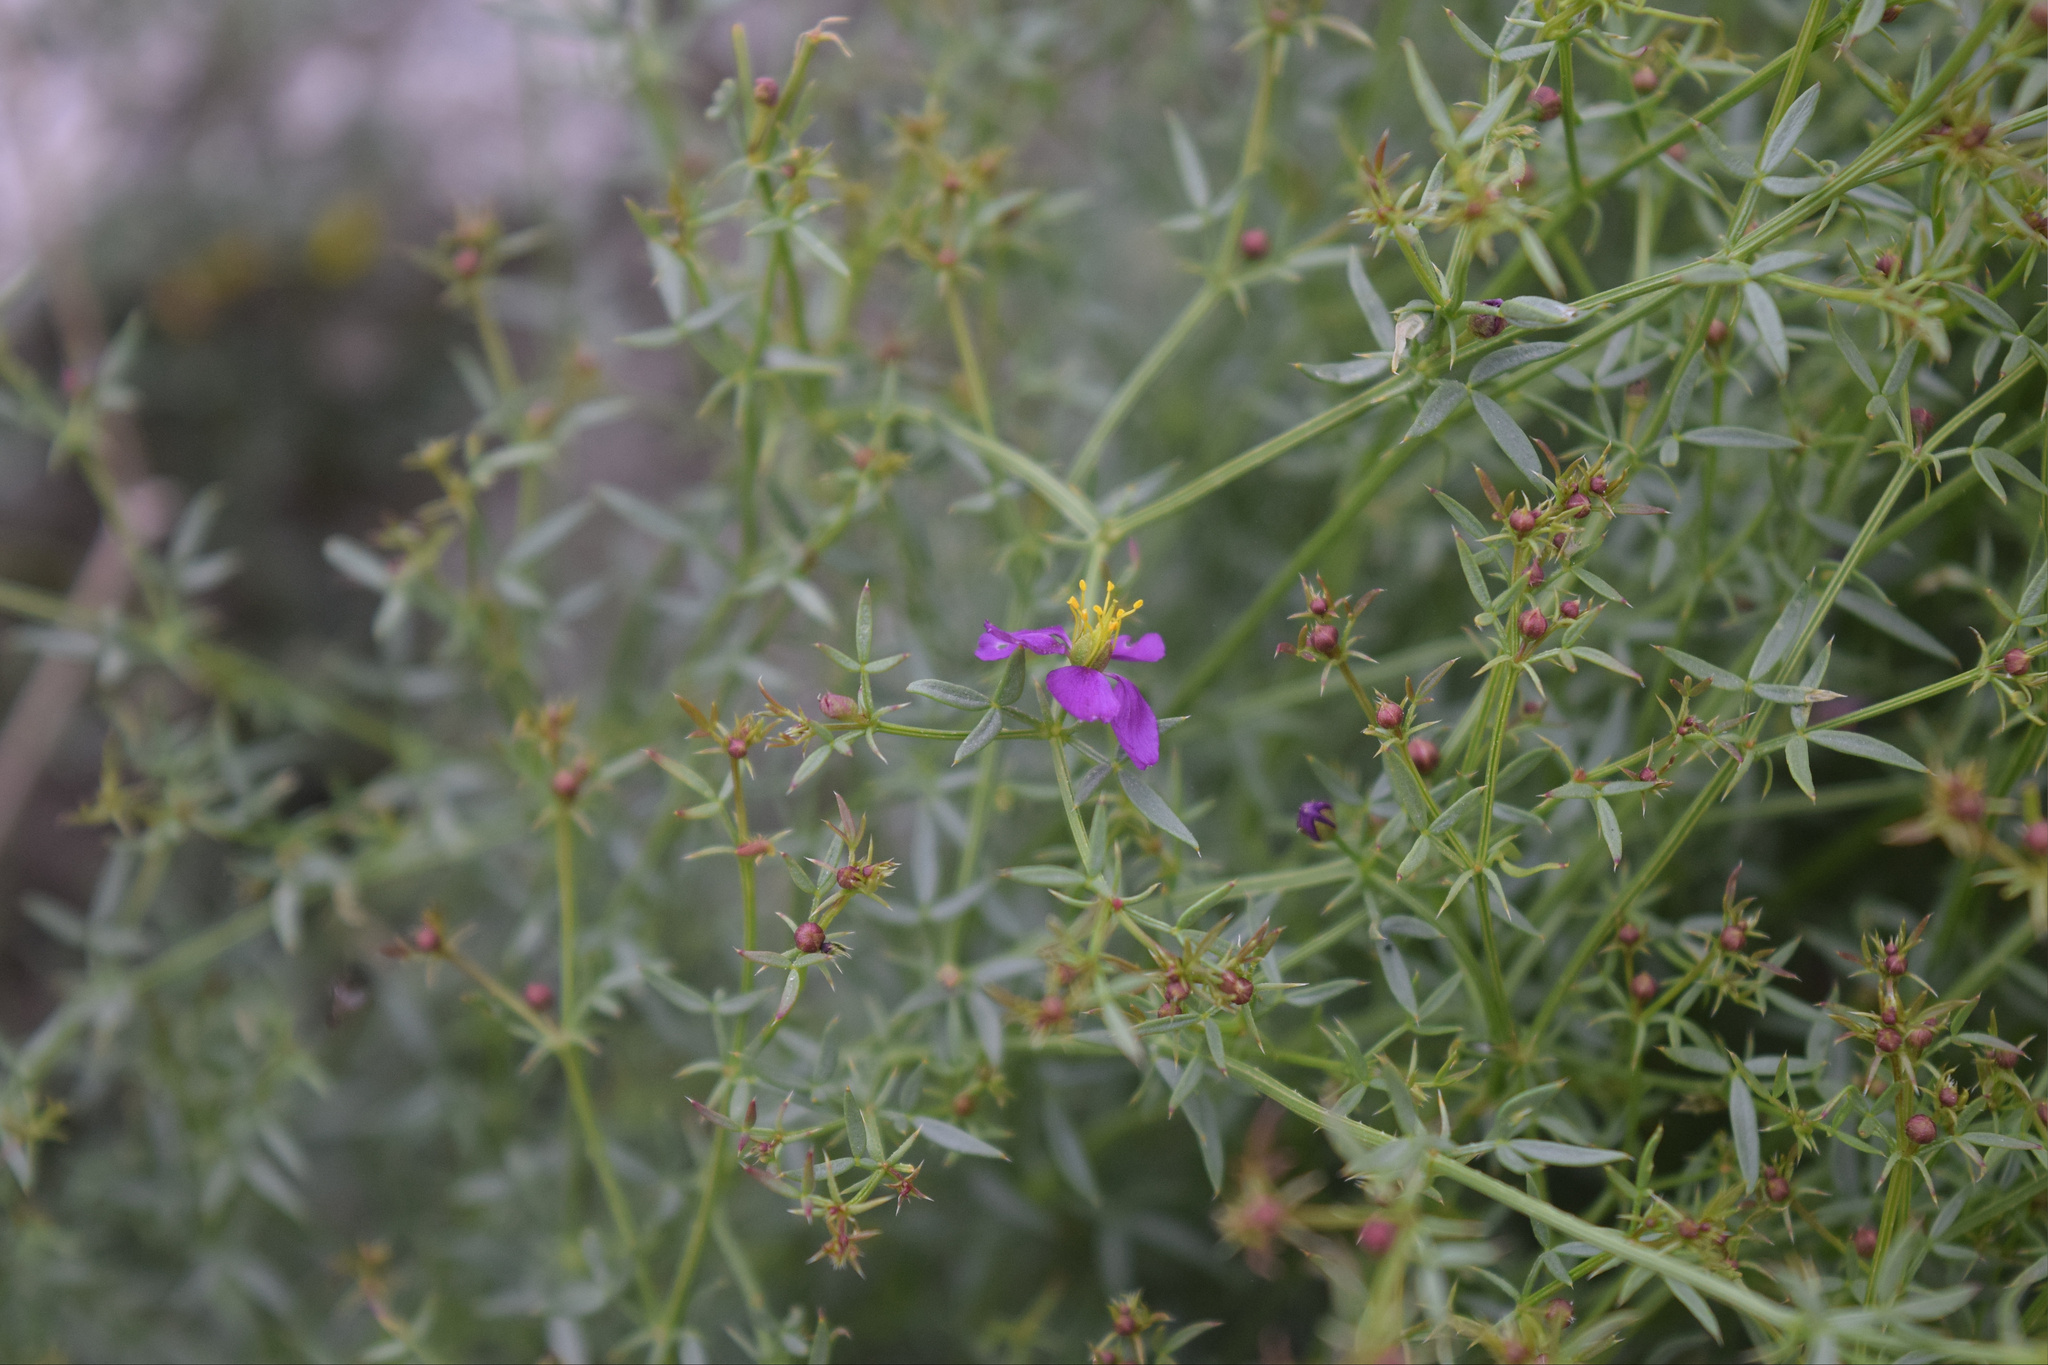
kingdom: Plantae
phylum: Tracheophyta
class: Magnoliopsida
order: Zygophyllales
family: Zygophyllaceae
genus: Fagonia
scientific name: Fagonia laevis
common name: California fagonbush
